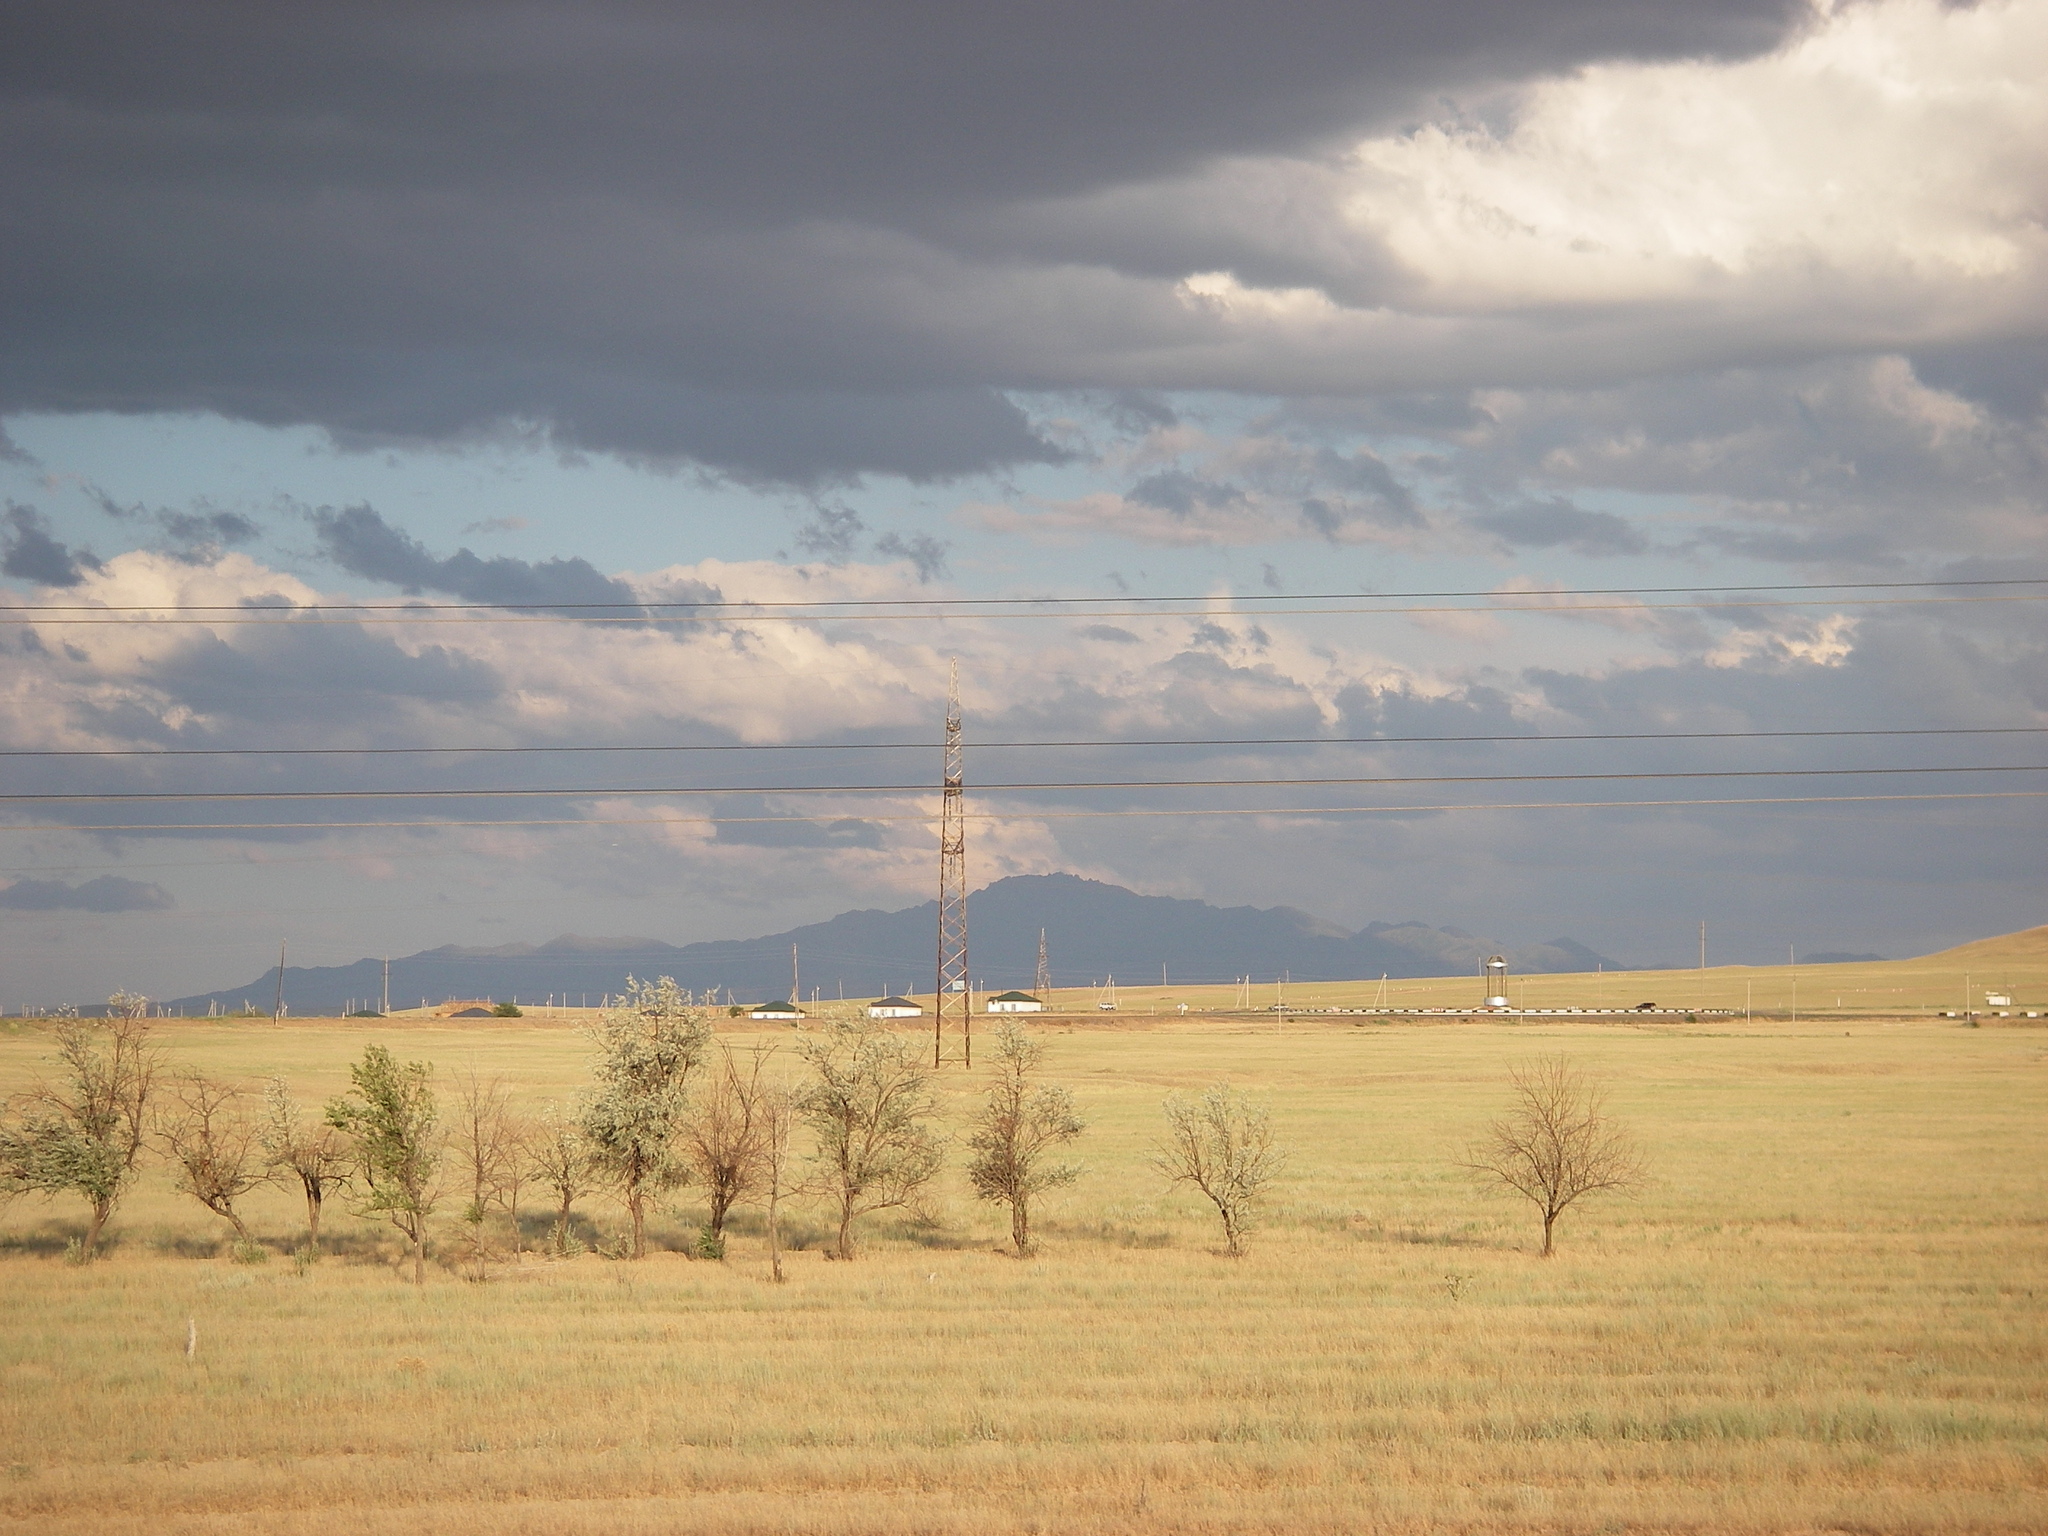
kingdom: Plantae
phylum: Tracheophyta
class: Magnoliopsida
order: Rosales
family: Ulmaceae
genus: Ulmus
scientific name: Ulmus pumila
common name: Siberian elm
